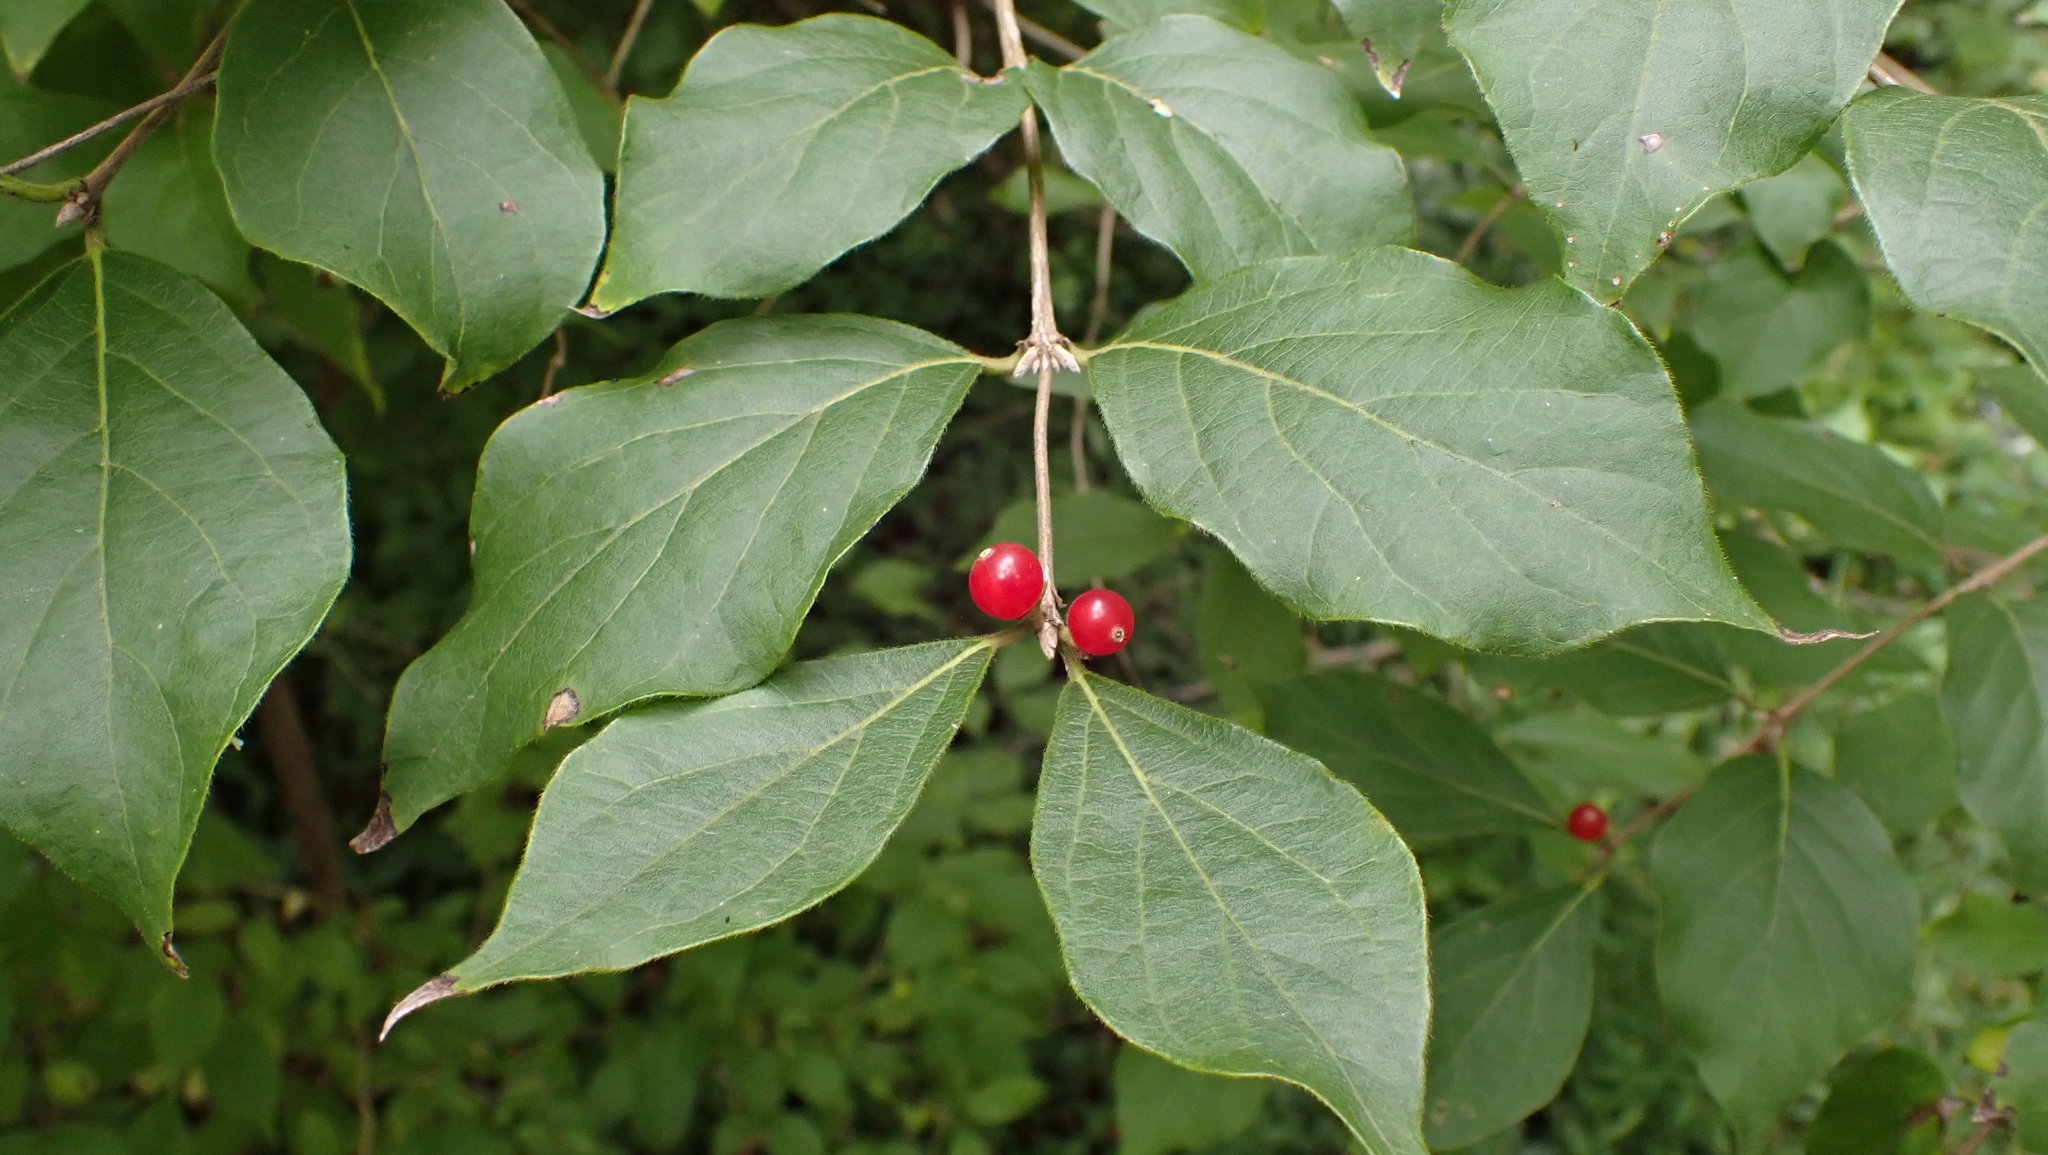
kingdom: Plantae
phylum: Tracheophyta
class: Magnoliopsida
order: Dipsacales
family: Caprifoliaceae
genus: Lonicera
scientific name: Lonicera maackii
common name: Amur honeysuckle
